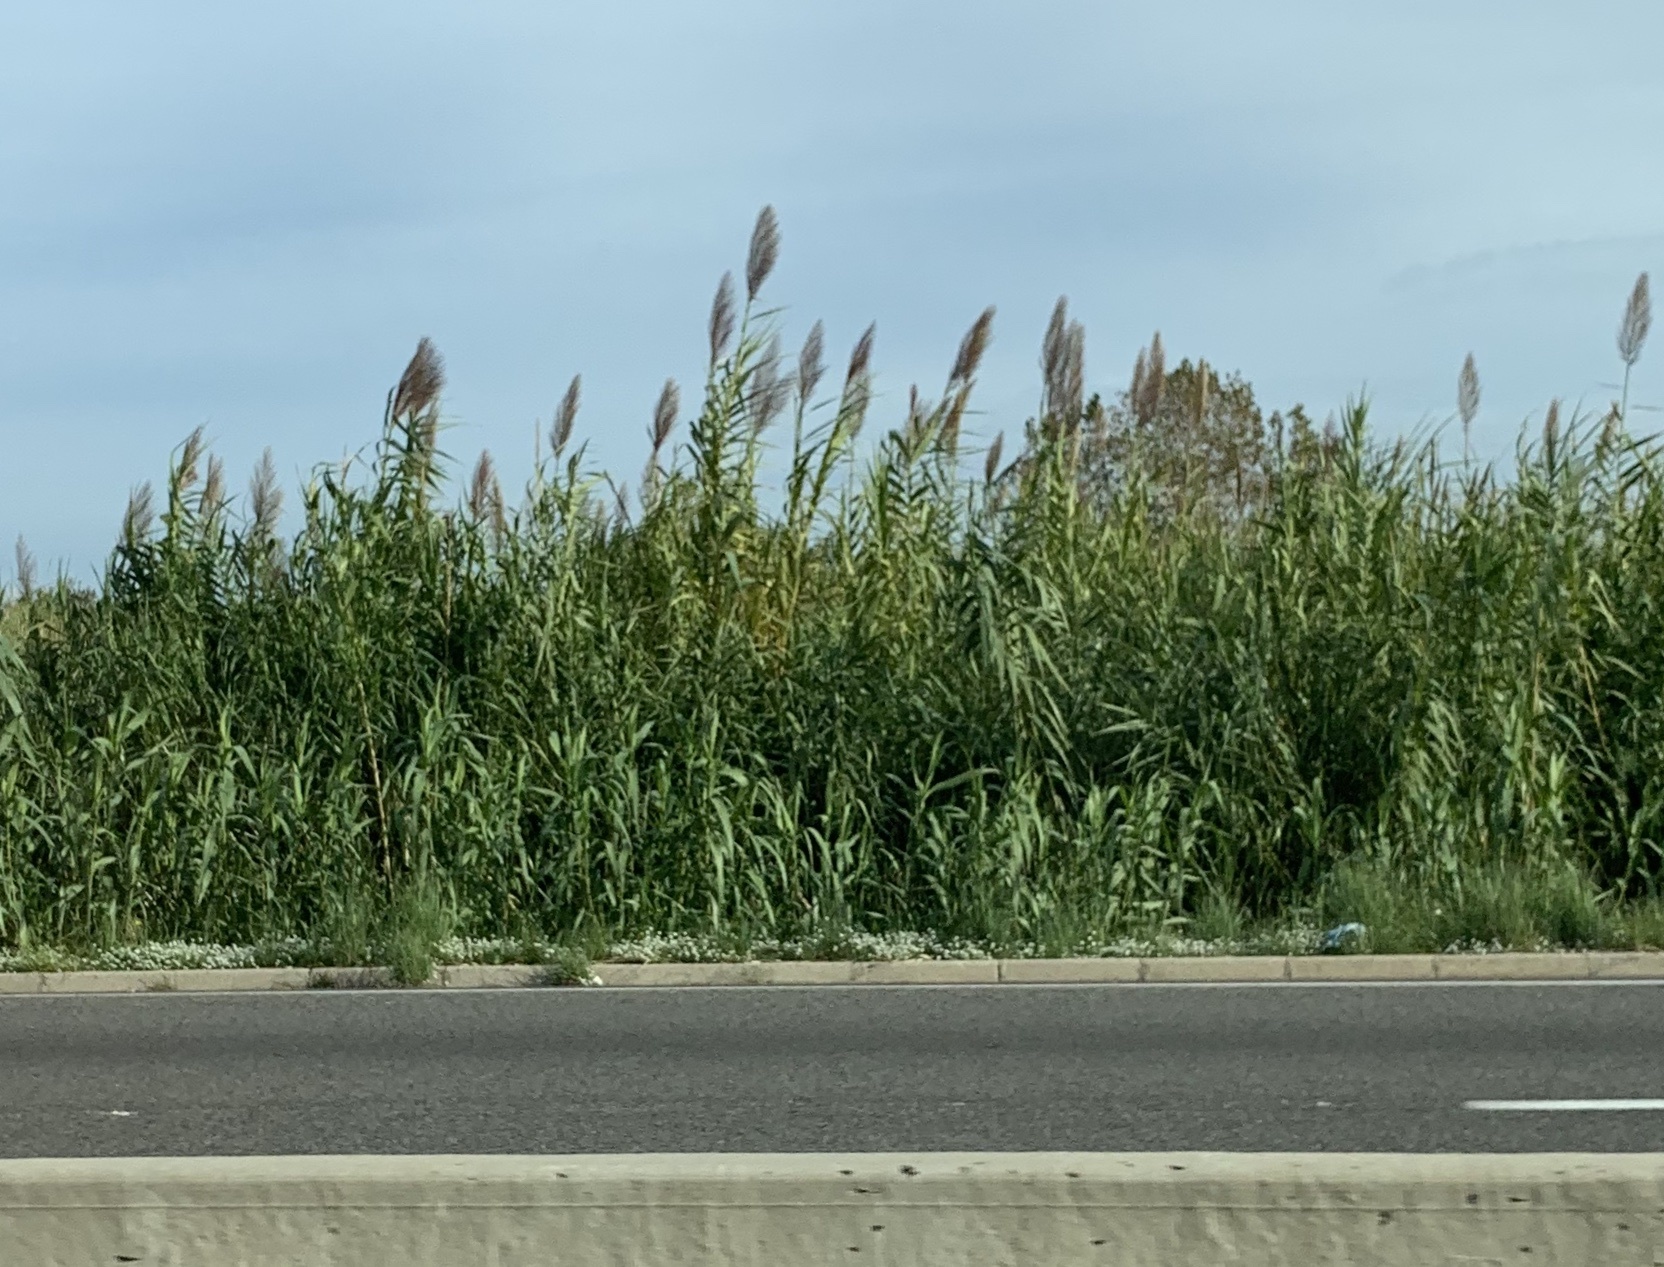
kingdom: Plantae
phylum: Tracheophyta
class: Liliopsida
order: Poales
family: Poaceae
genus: Arundo
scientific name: Arundo donax
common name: Giant reed
